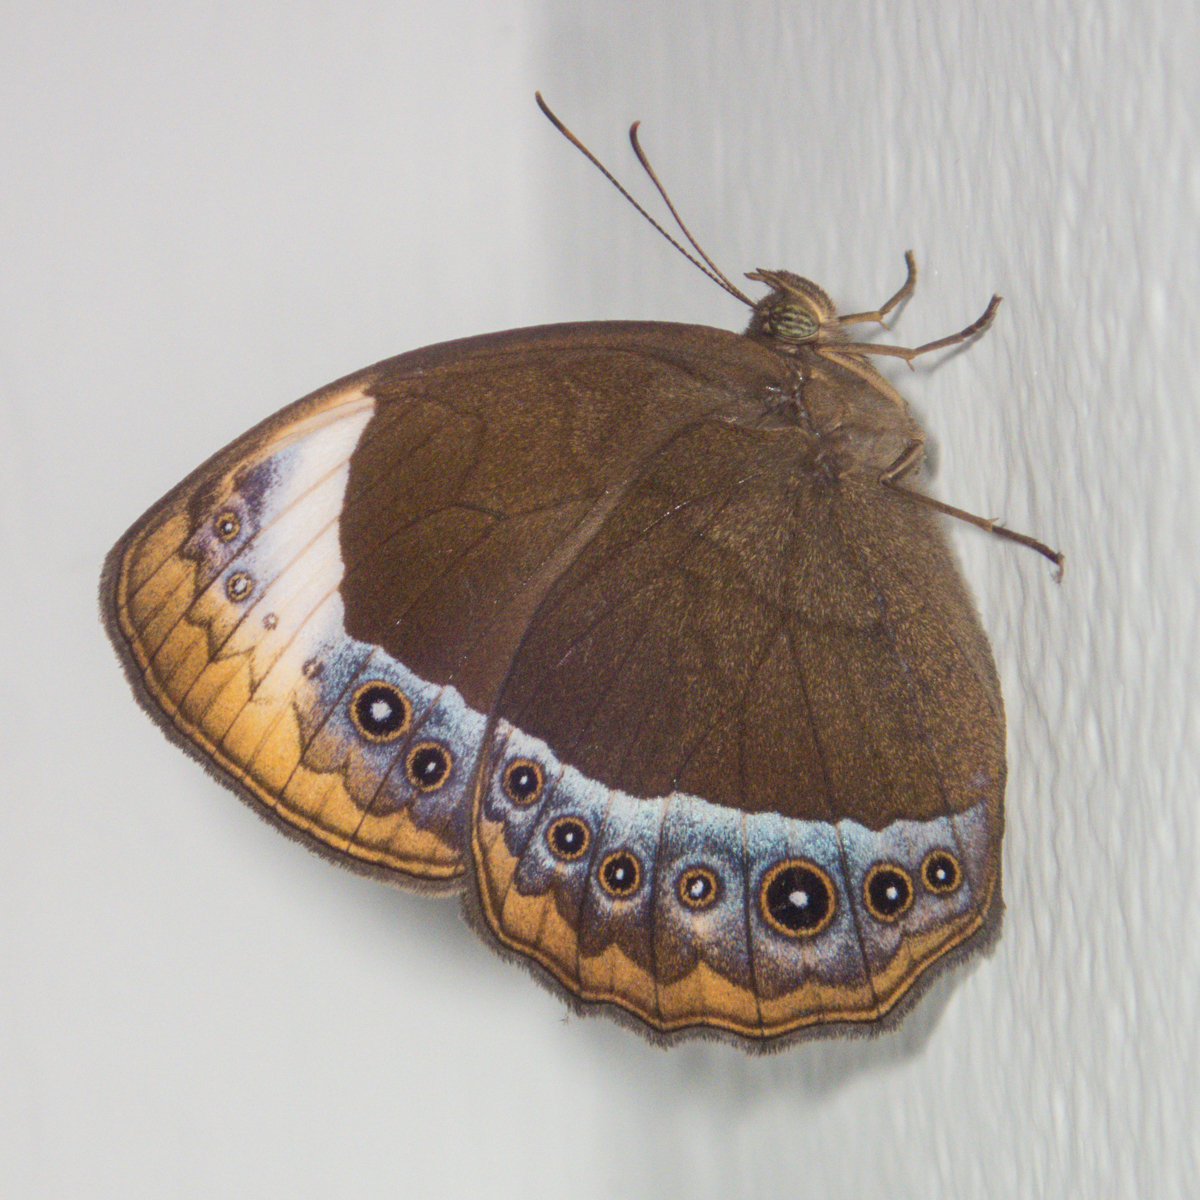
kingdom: Animalia
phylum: Arthropoda
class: Insecta
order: Lepidoptera
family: Nymphalidae
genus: Mycalesis
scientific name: Mycalesis anaxioides
